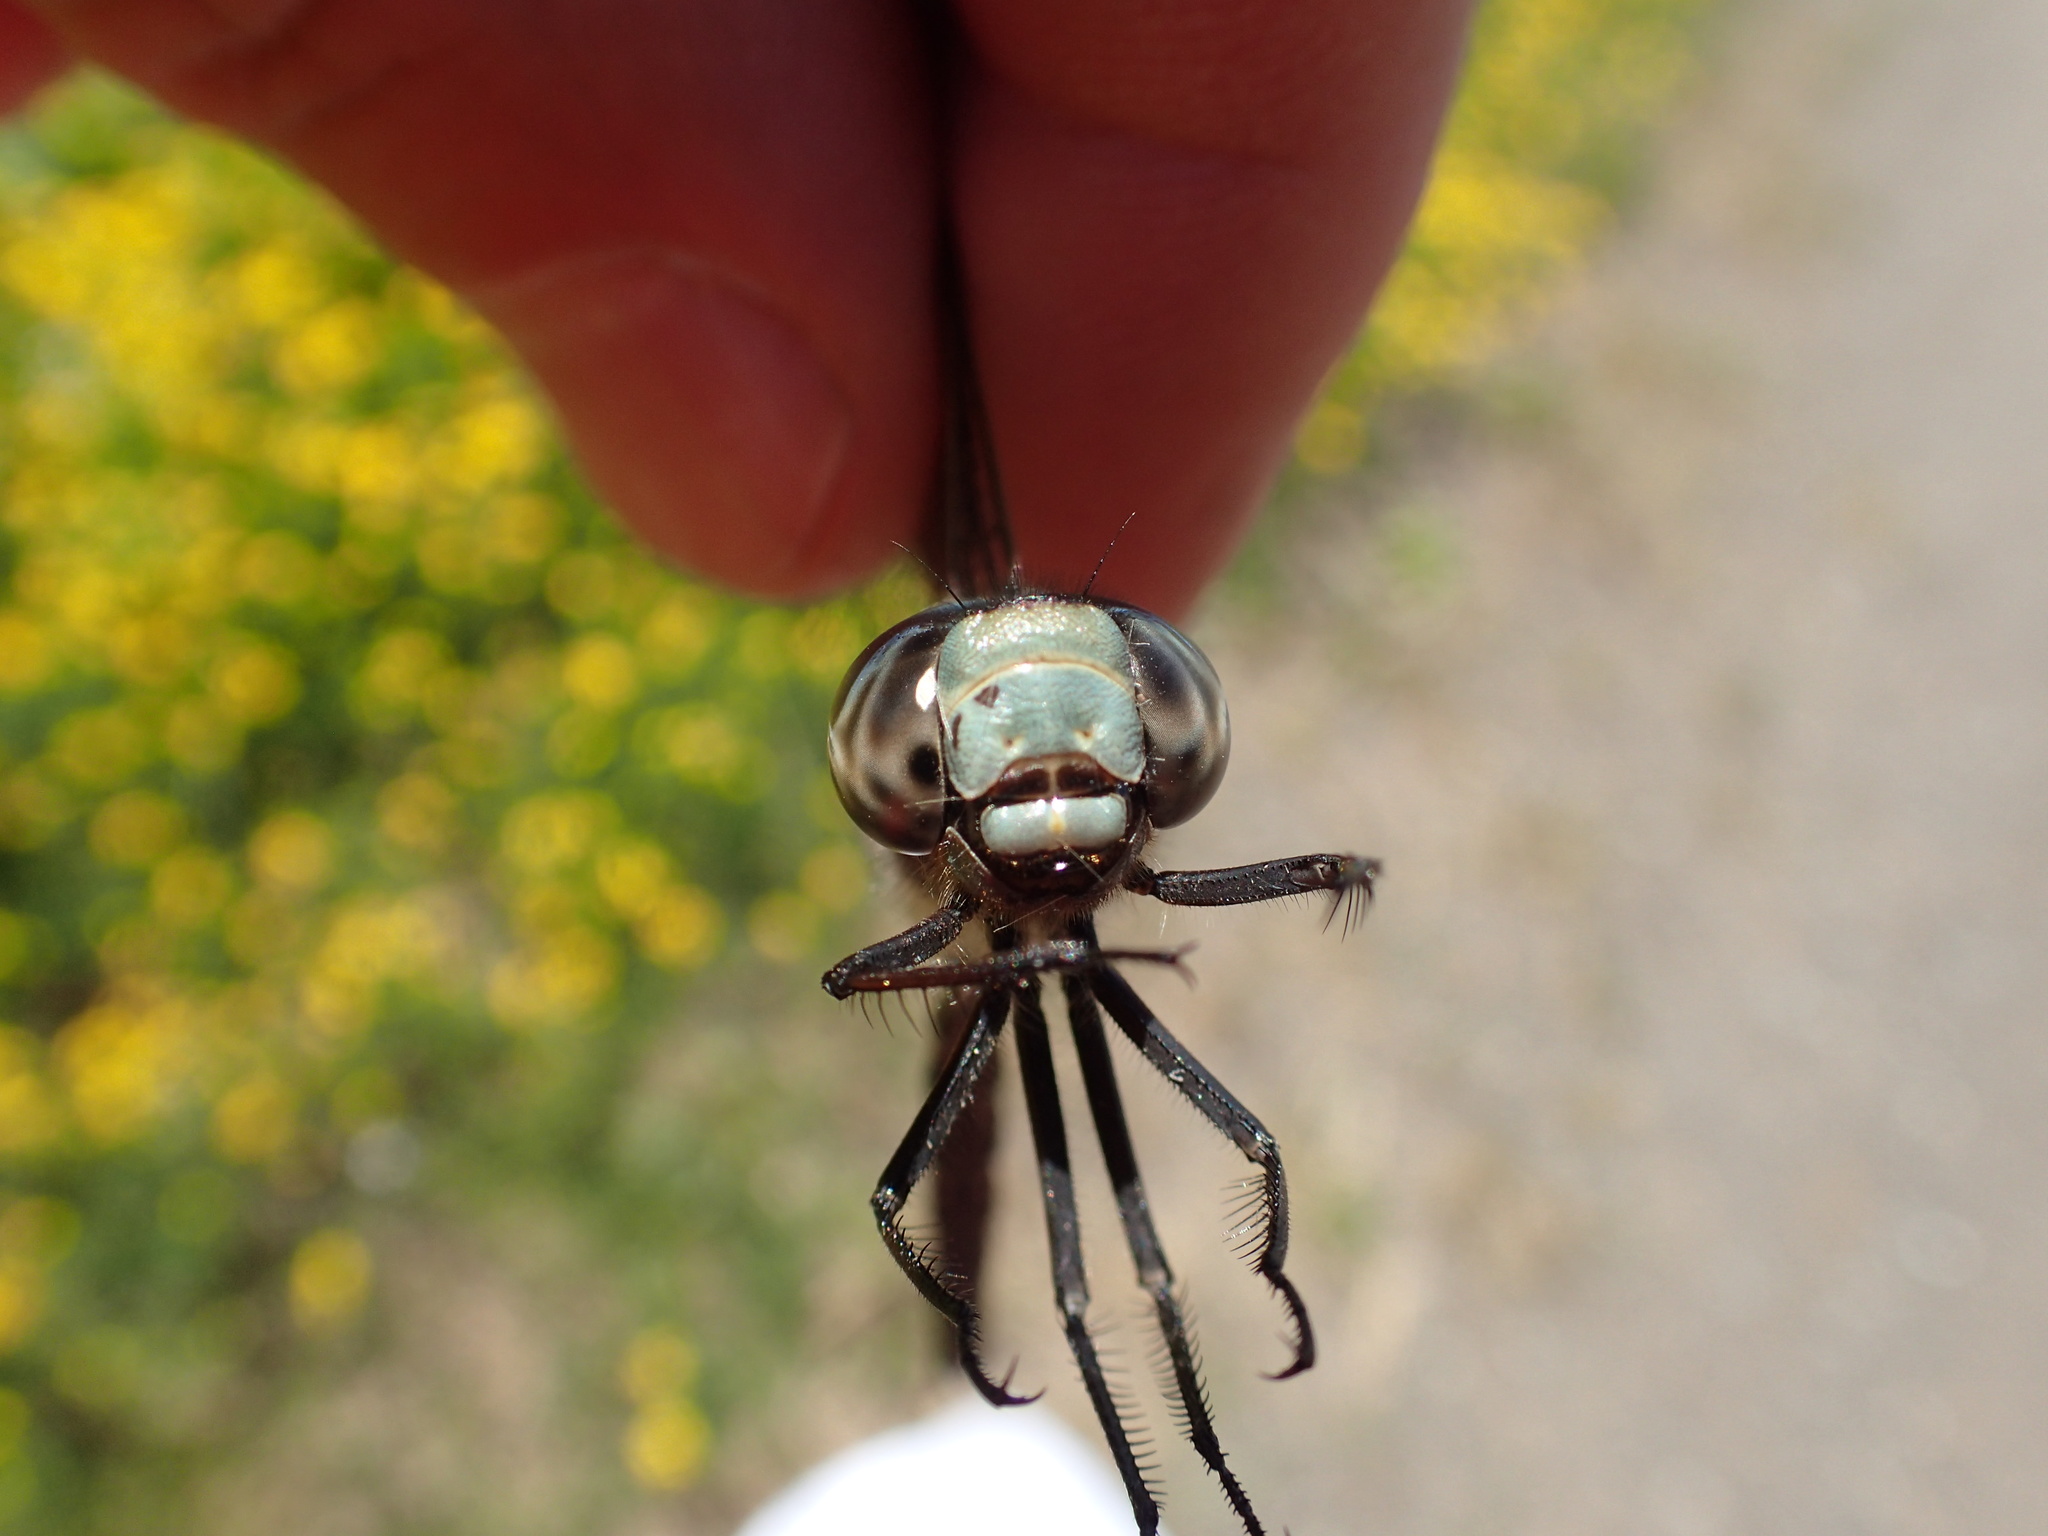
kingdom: Animalia
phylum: Arthropoda
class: Insecta
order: Odonata
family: Aeshnidae
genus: Aeshna
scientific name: Aeshna canadensis
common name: Canada darner
